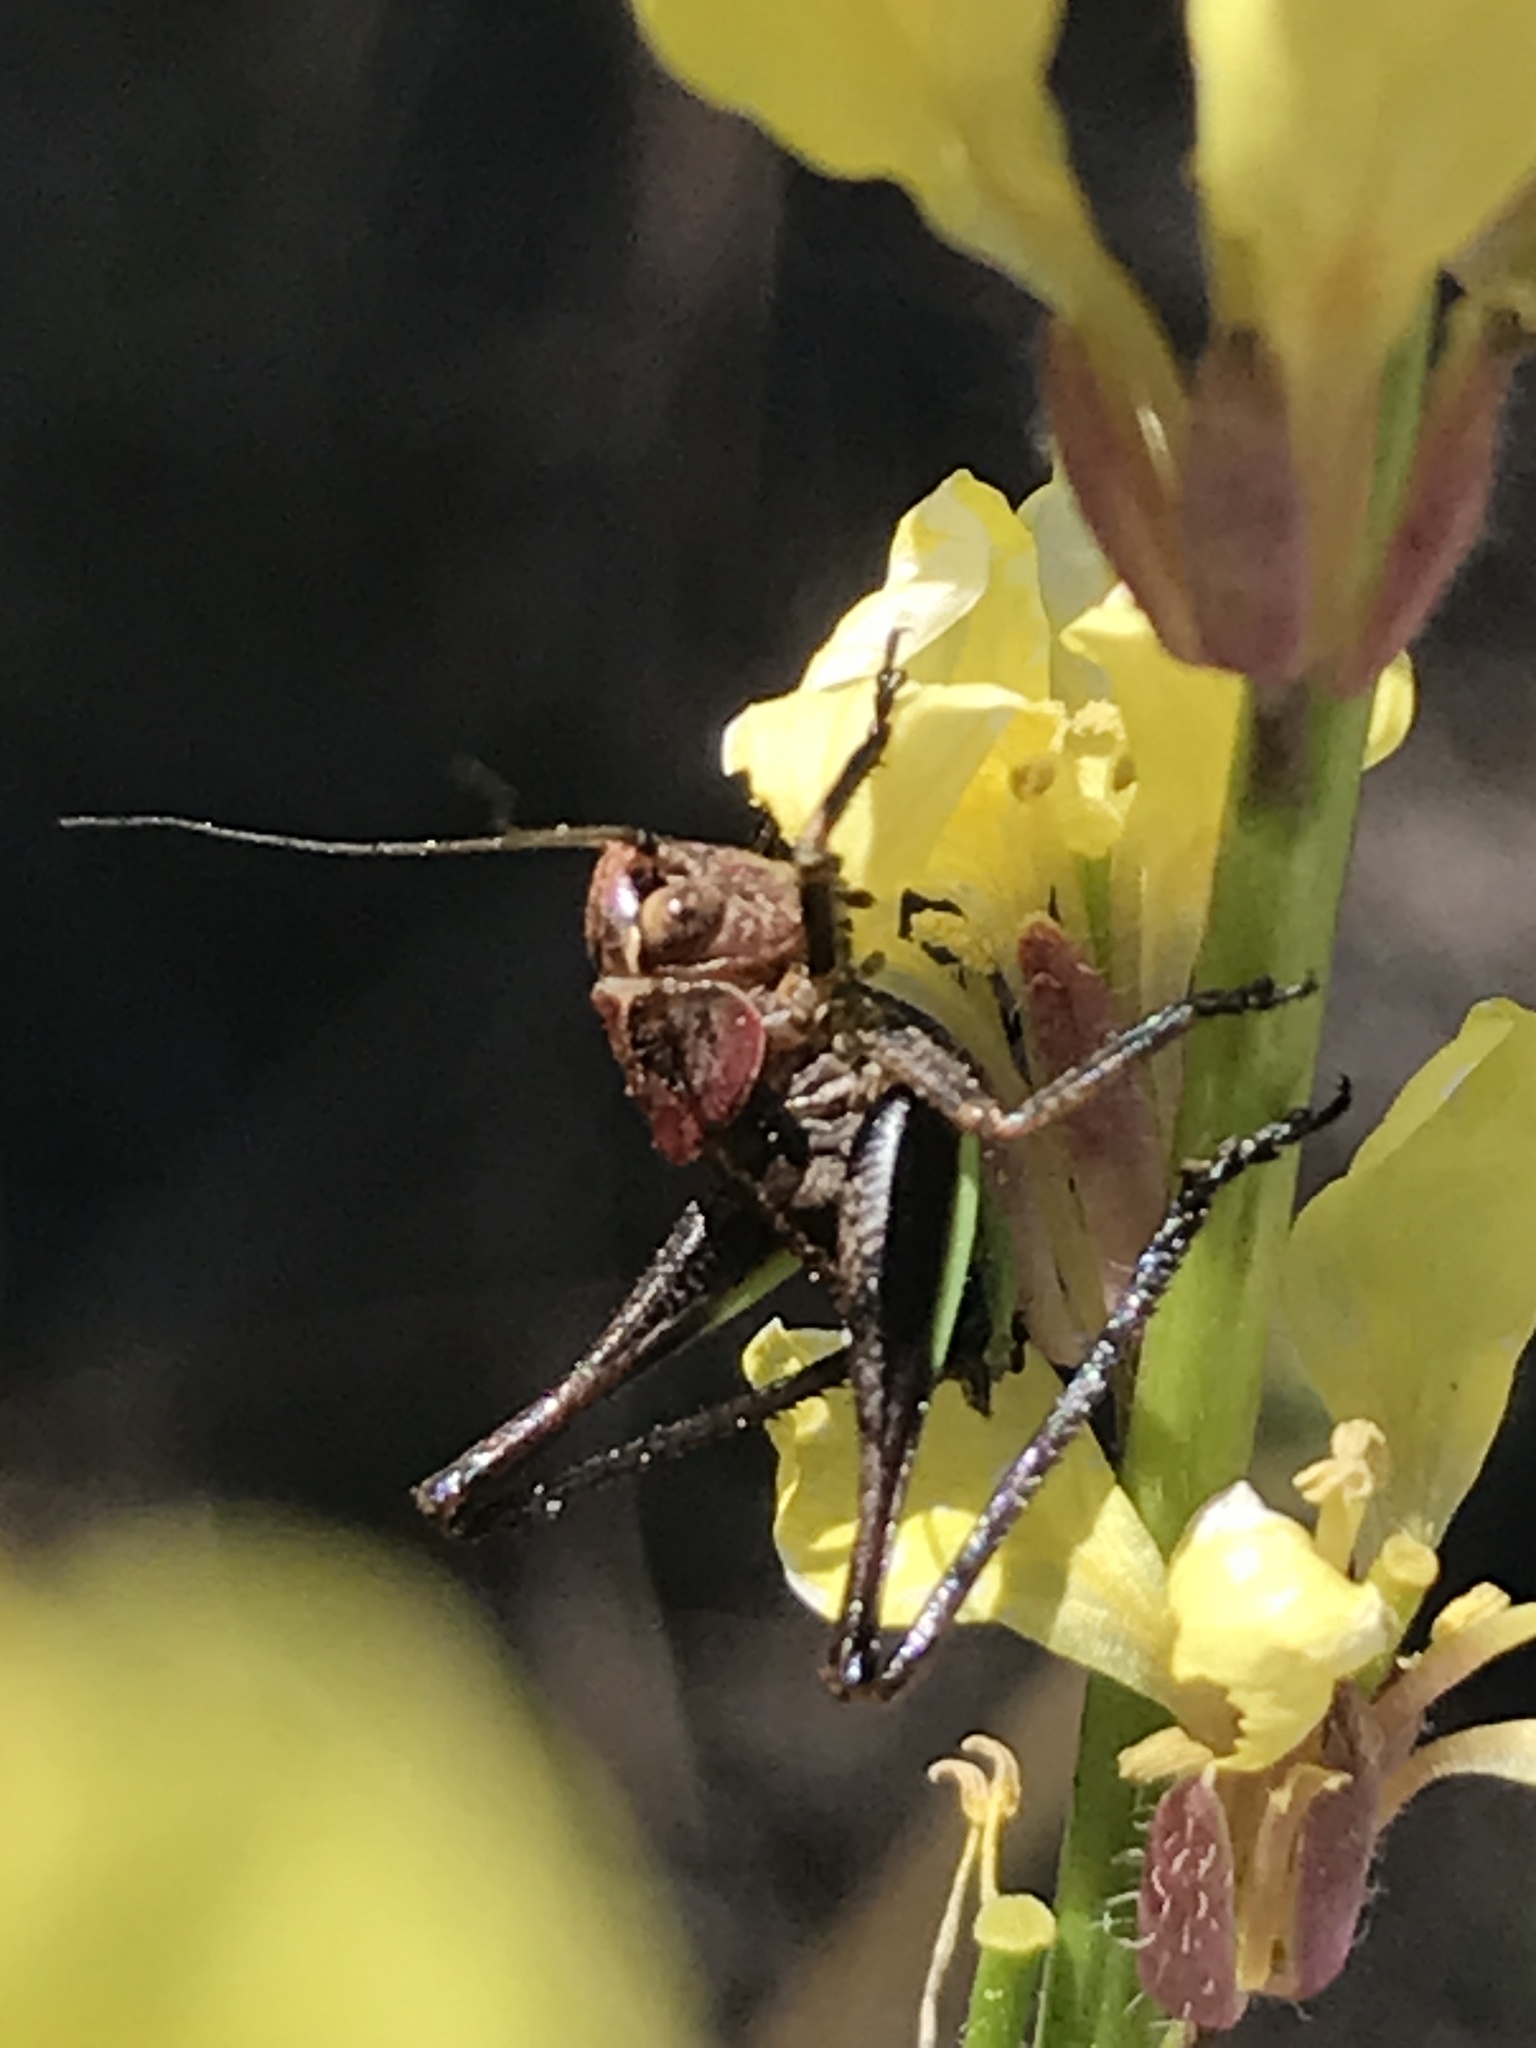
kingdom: Animalia
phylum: Arthropoda
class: Insecta
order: Orthoptera
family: Tettigoniidae
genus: Decticus
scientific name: Decticus albifrons
